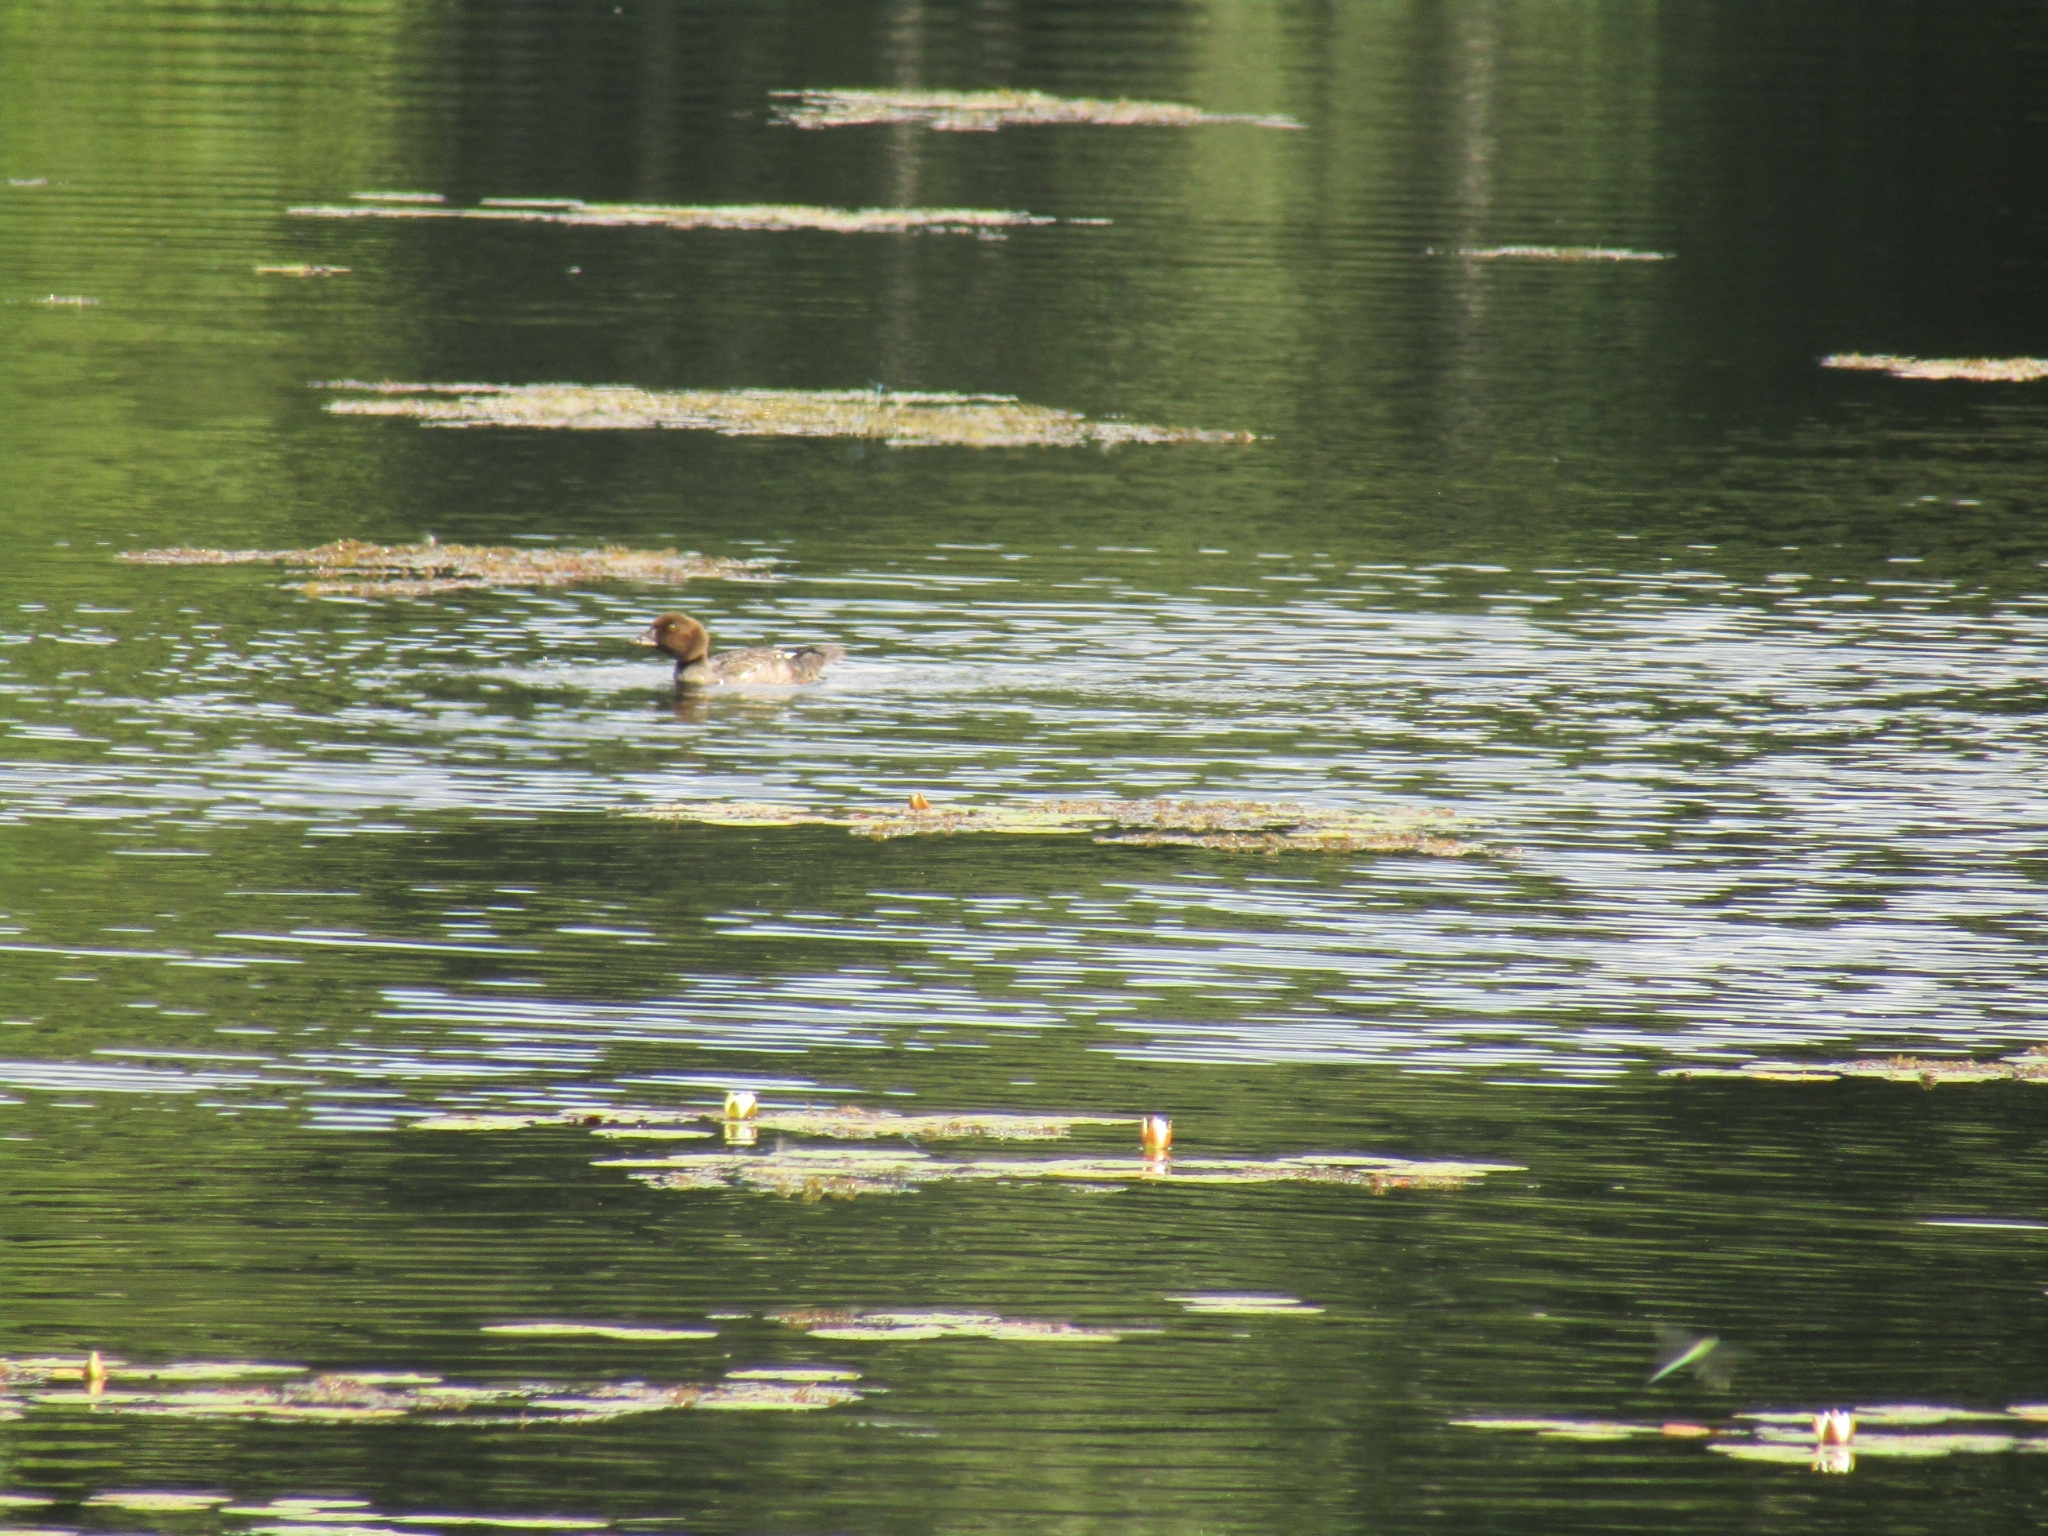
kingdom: Animalia
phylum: Chordata
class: Aves
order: Anseriformes
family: Anatidae
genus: Bucephala
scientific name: Bucephala clangula
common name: Common goldeneye
